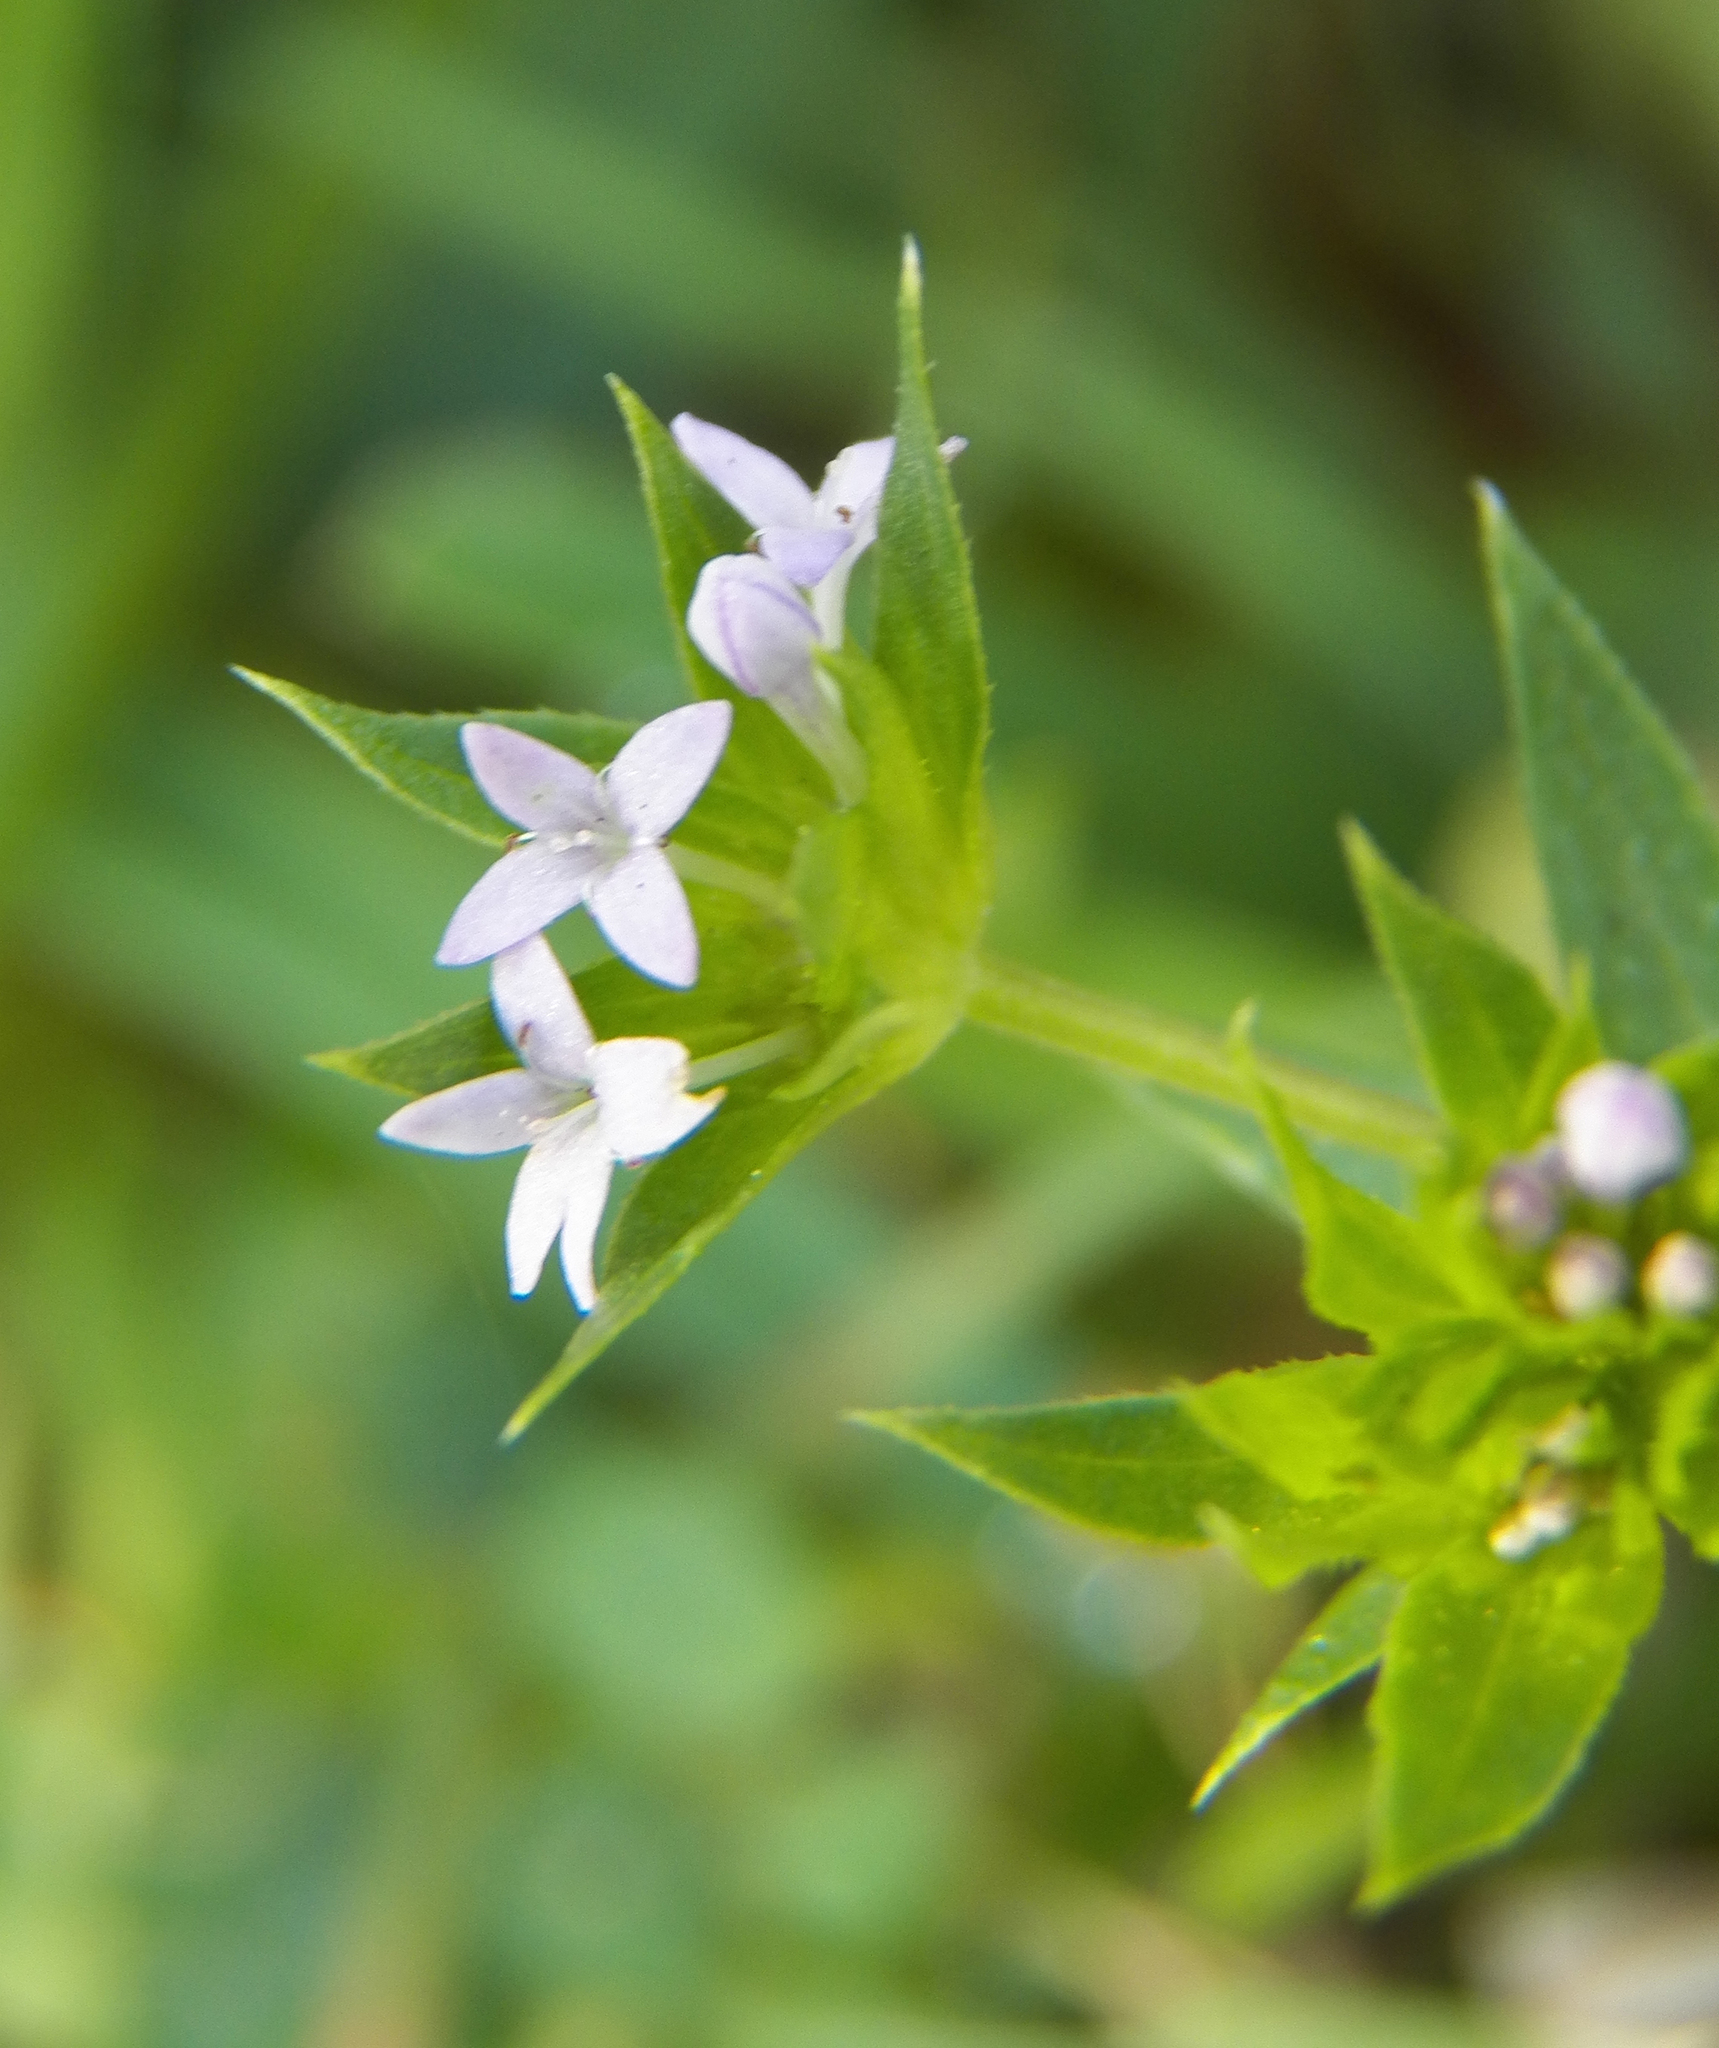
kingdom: Plantae
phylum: Tracheophyta
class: Magnoliopsida
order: Gentianales
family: Rubiaceae
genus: Sherardia
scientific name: Sherardia arvensis
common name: Field madder
